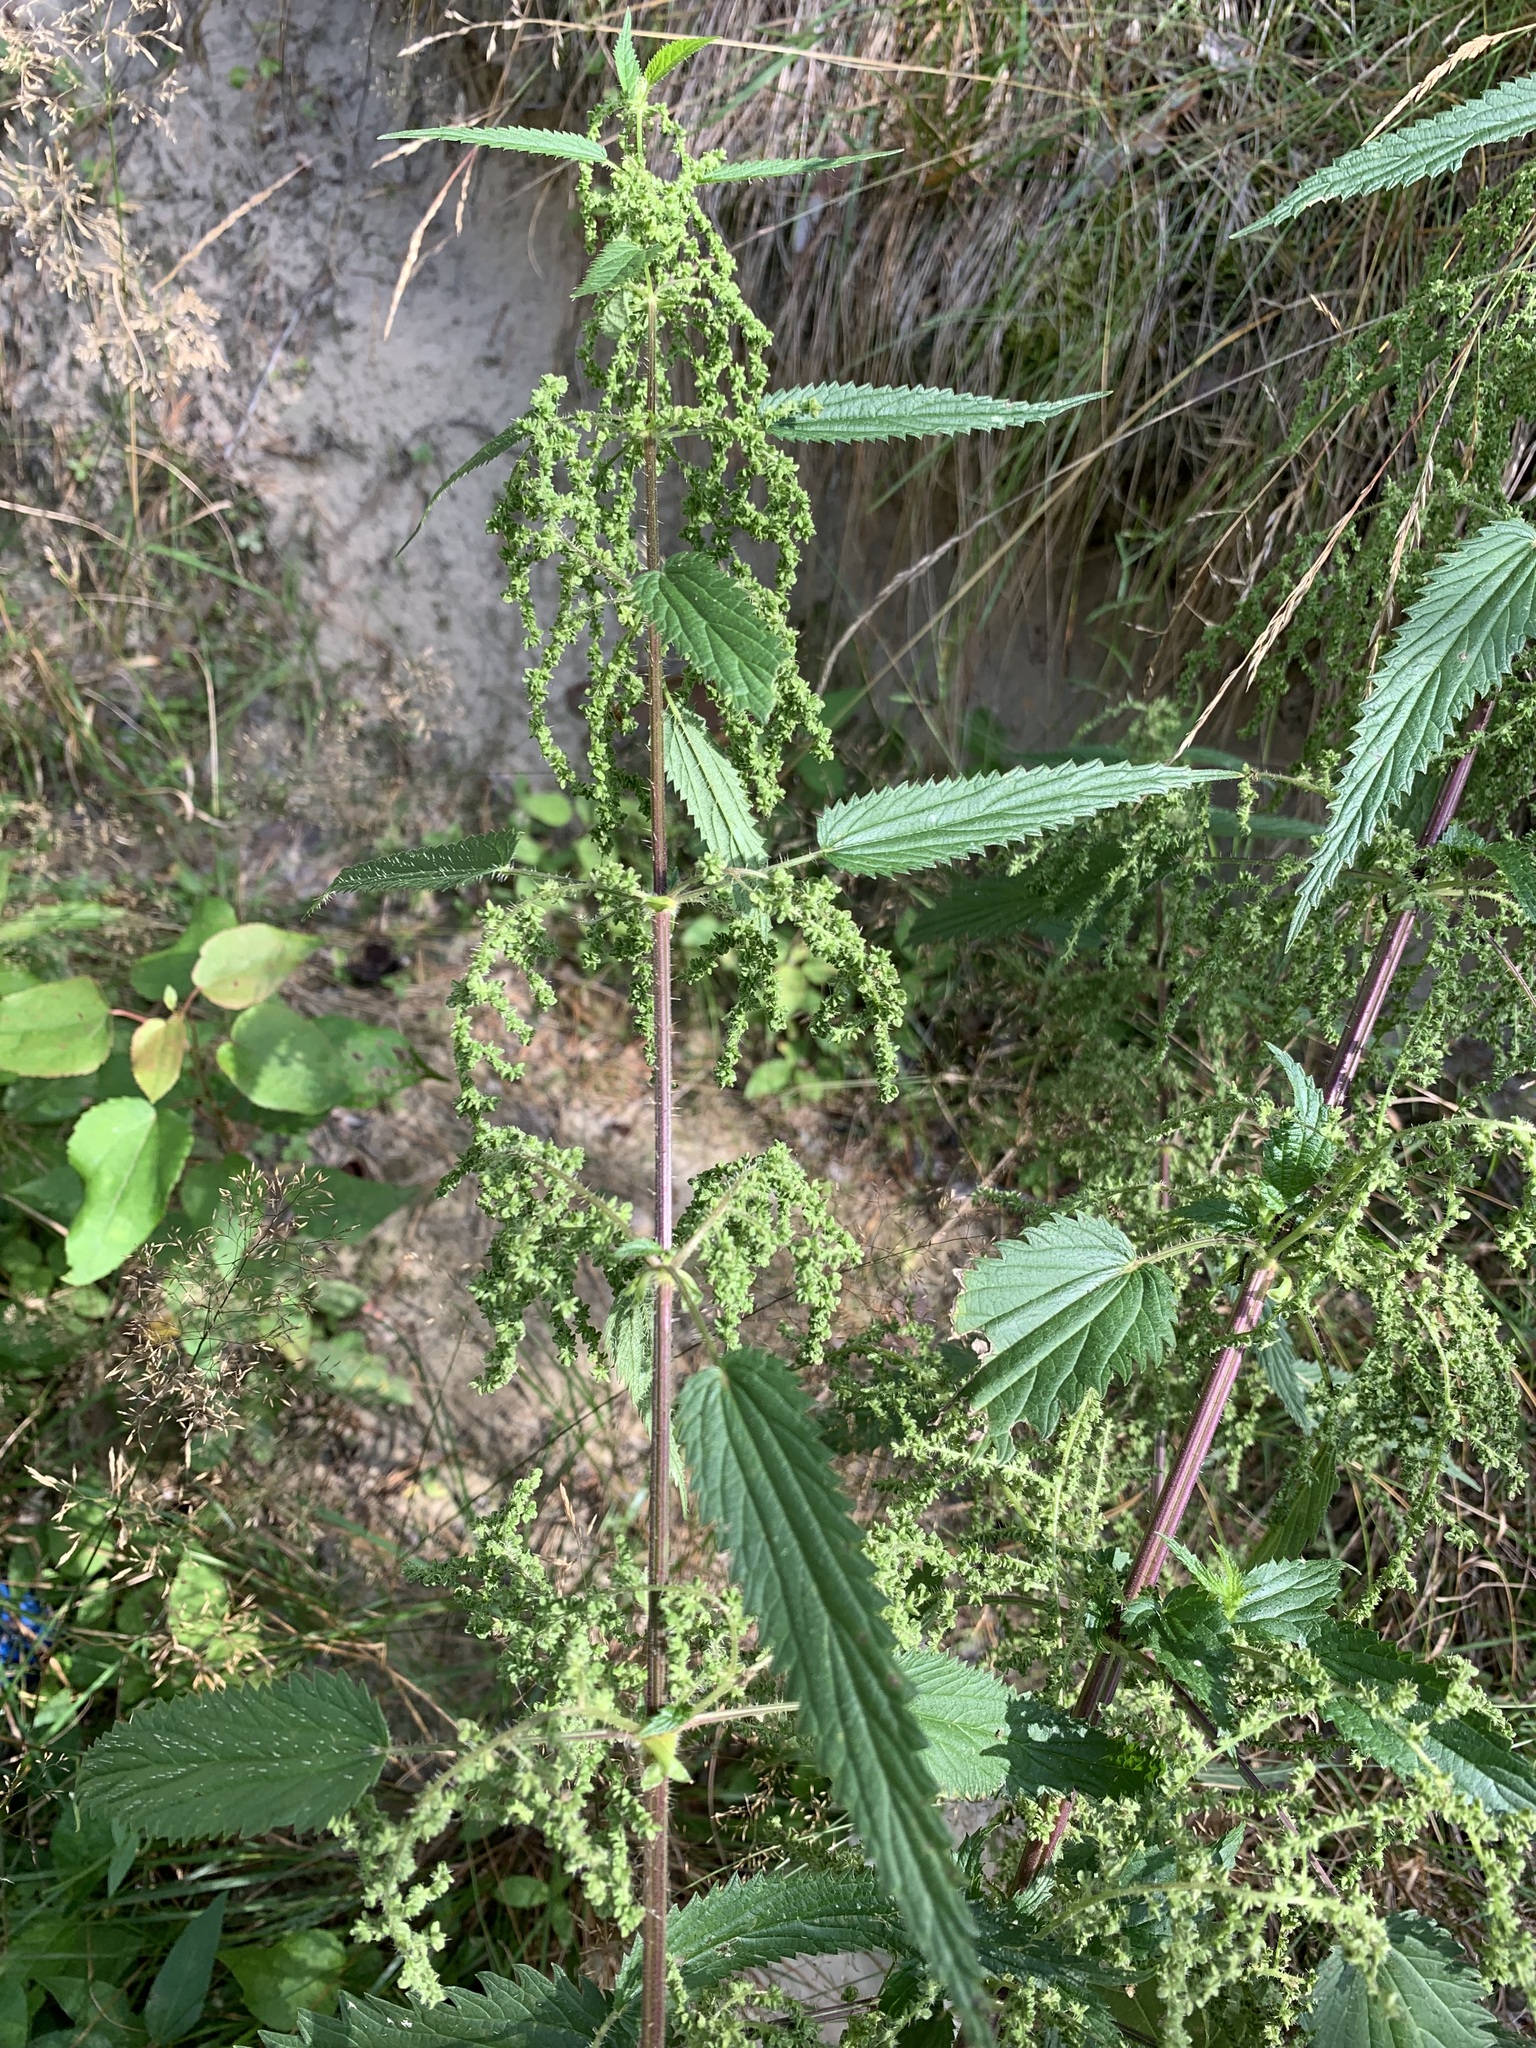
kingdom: Plantae
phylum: Tracheophyta
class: Magnoliopsida
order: Rosales
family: Urticaceae
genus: Urtica
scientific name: Urtica dioica
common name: Common nettle
